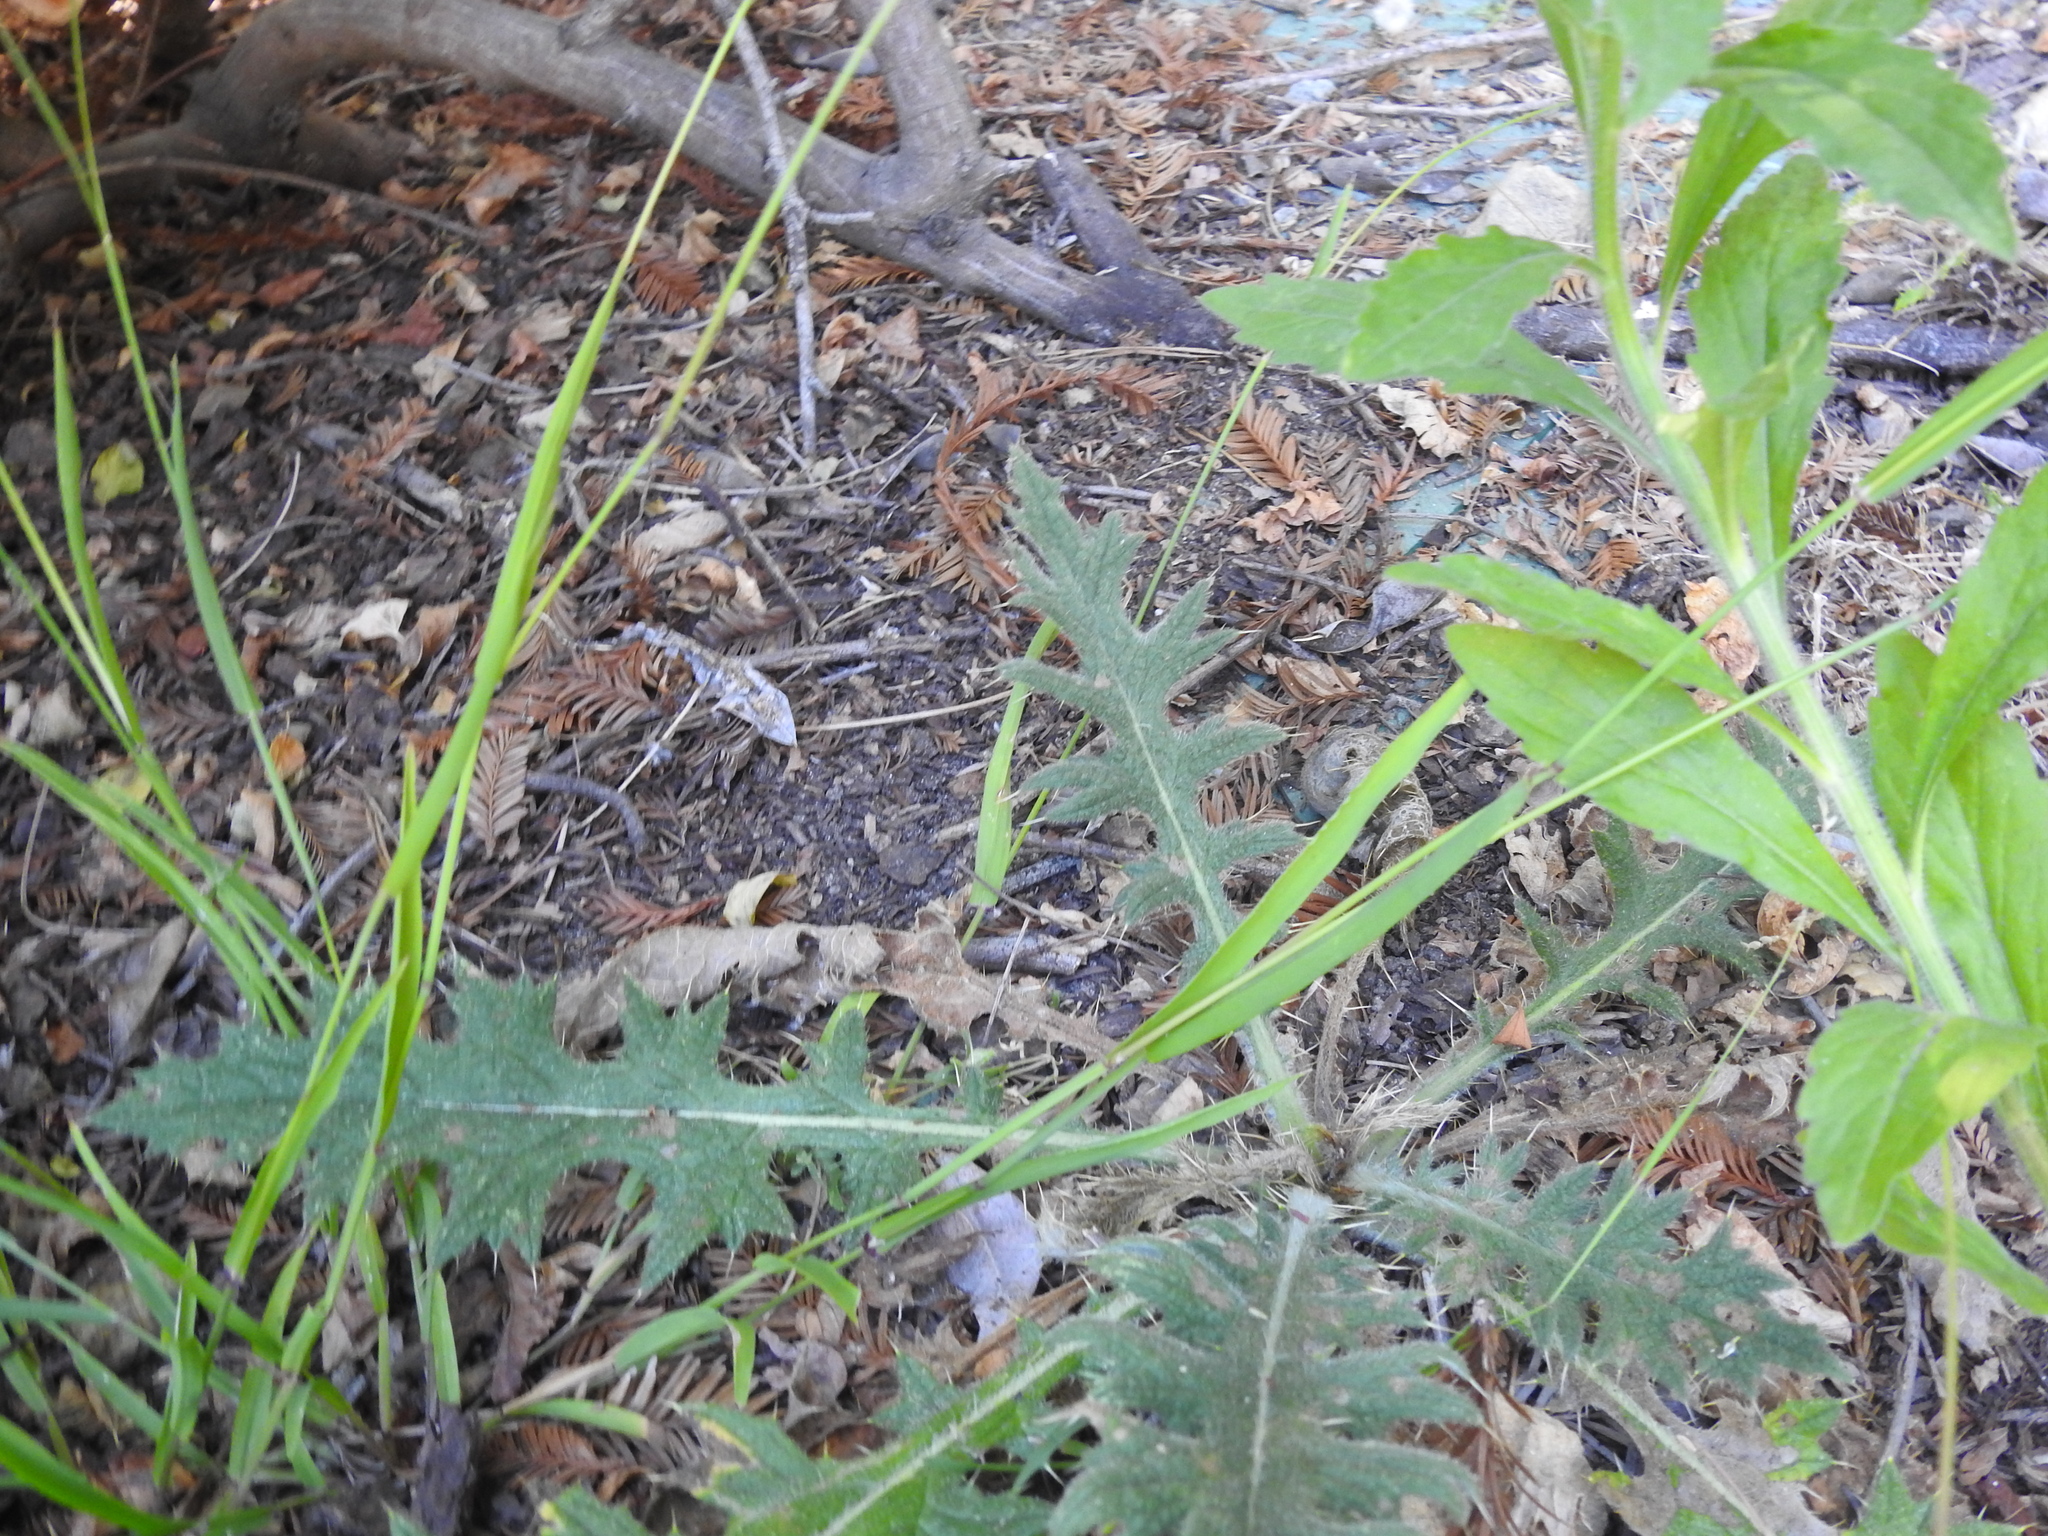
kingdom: Plantae
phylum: Tracheophyta
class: Magnoliopsida
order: Asterales
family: Asteraceae
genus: Cirsium
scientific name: Cirsium vulgare
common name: Bull thistle
